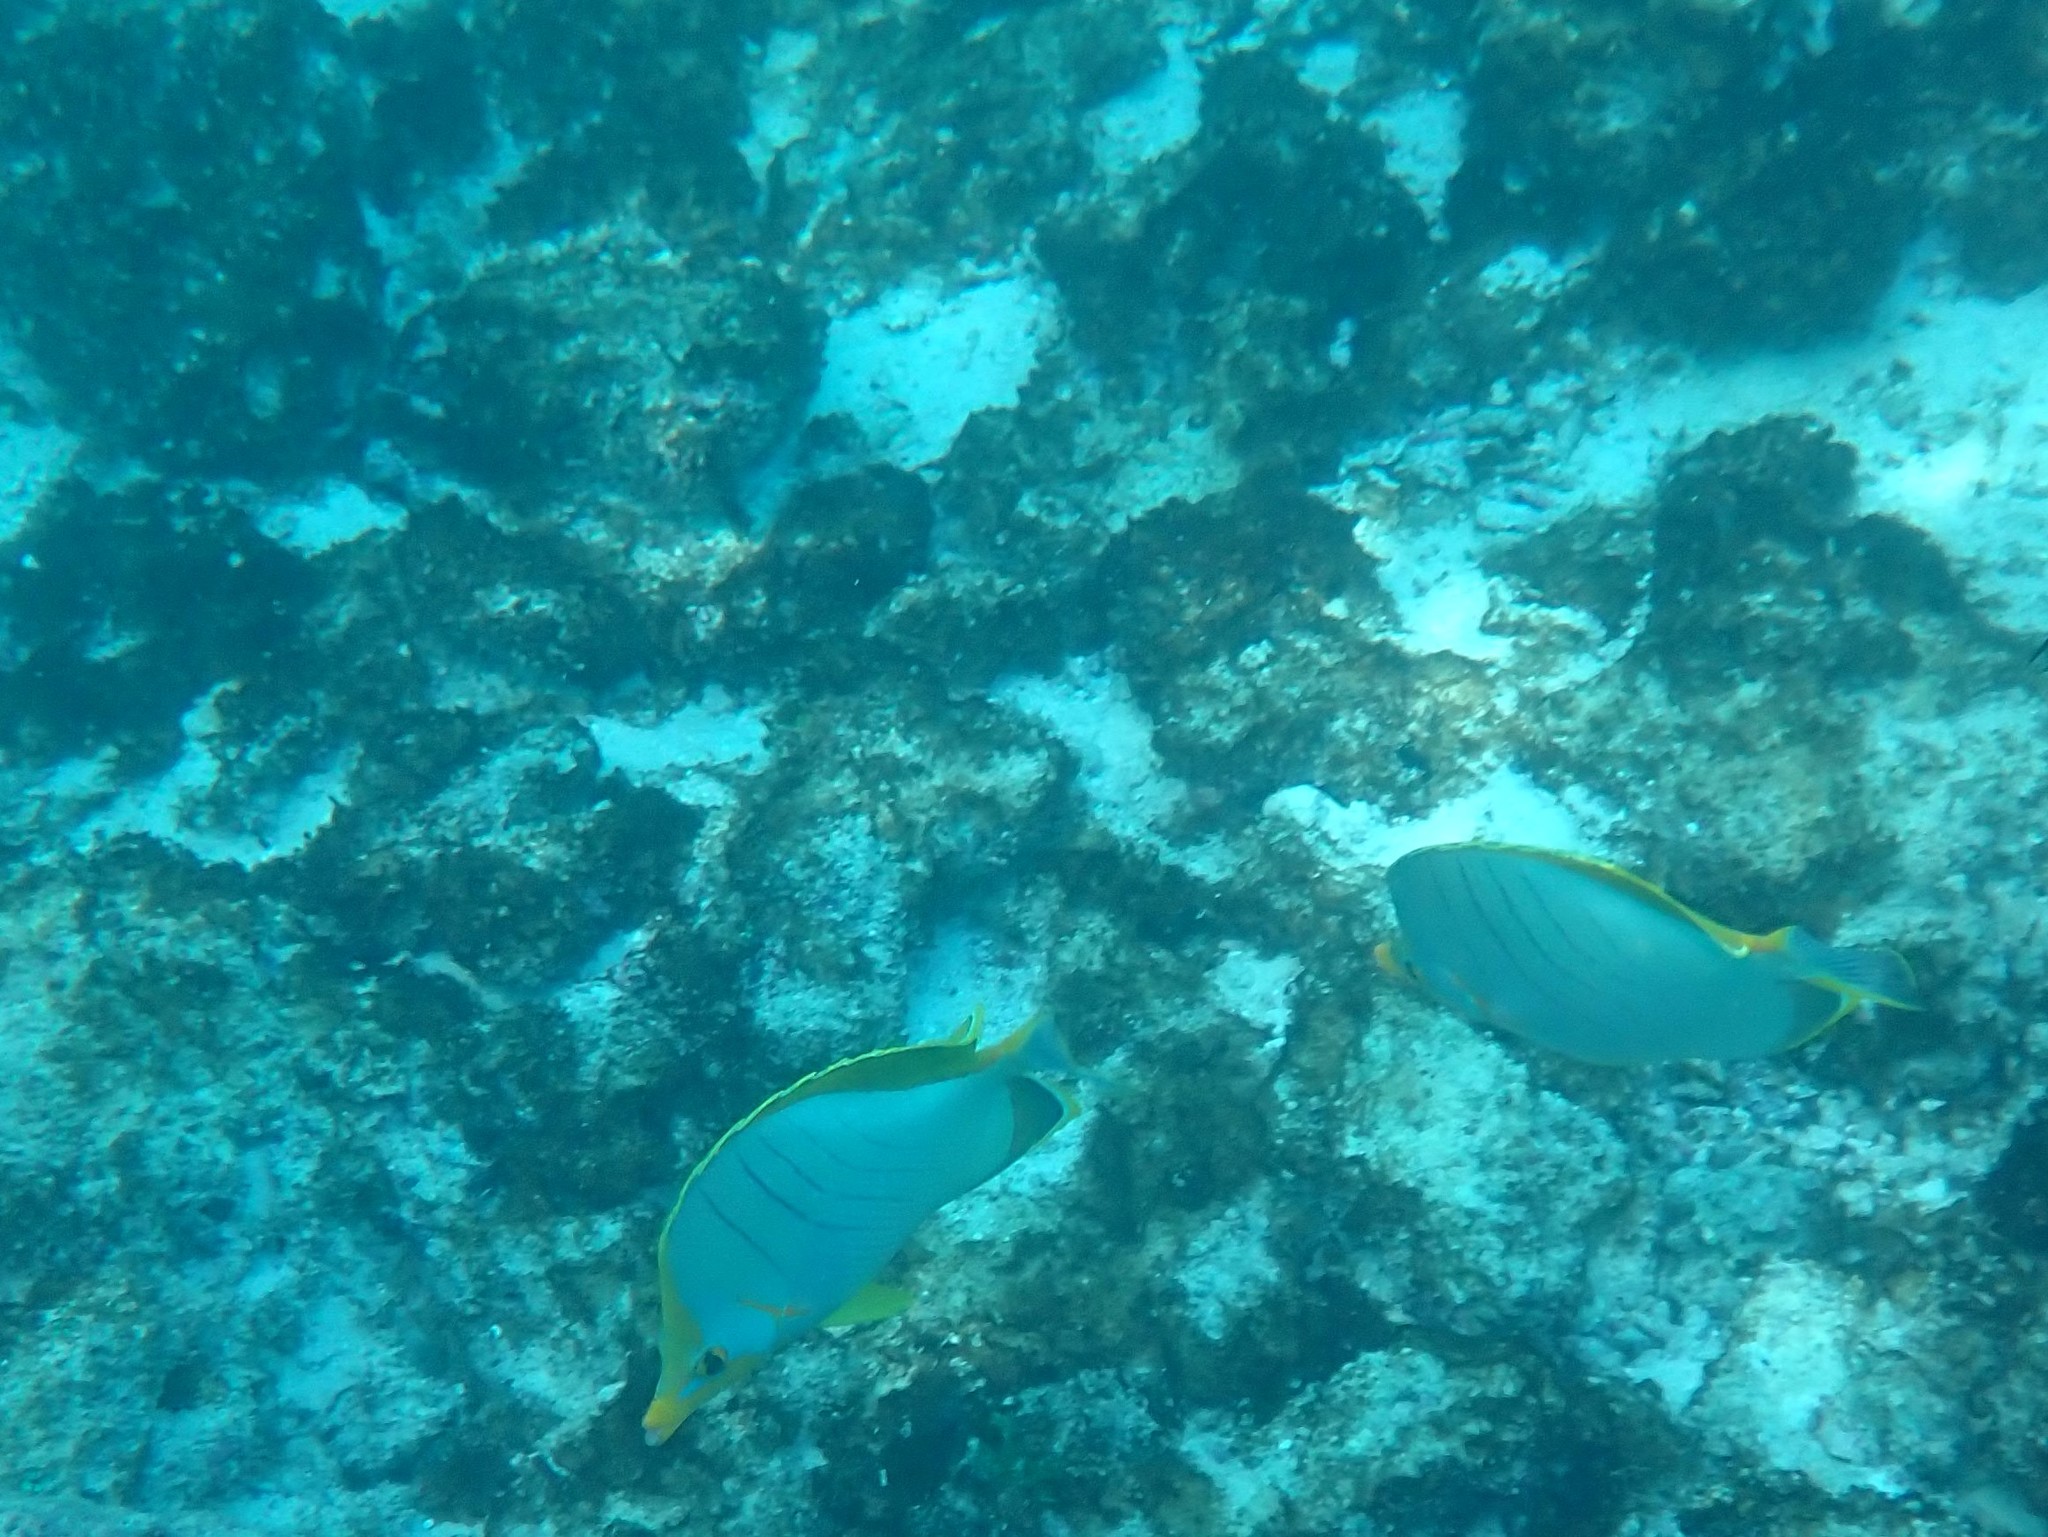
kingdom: Animalia
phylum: Chordata
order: Perciformes
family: Chaetodontidae
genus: Chaetodon
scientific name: Chaetodon xanthocephalus
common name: Yellowhead butterflyfish
